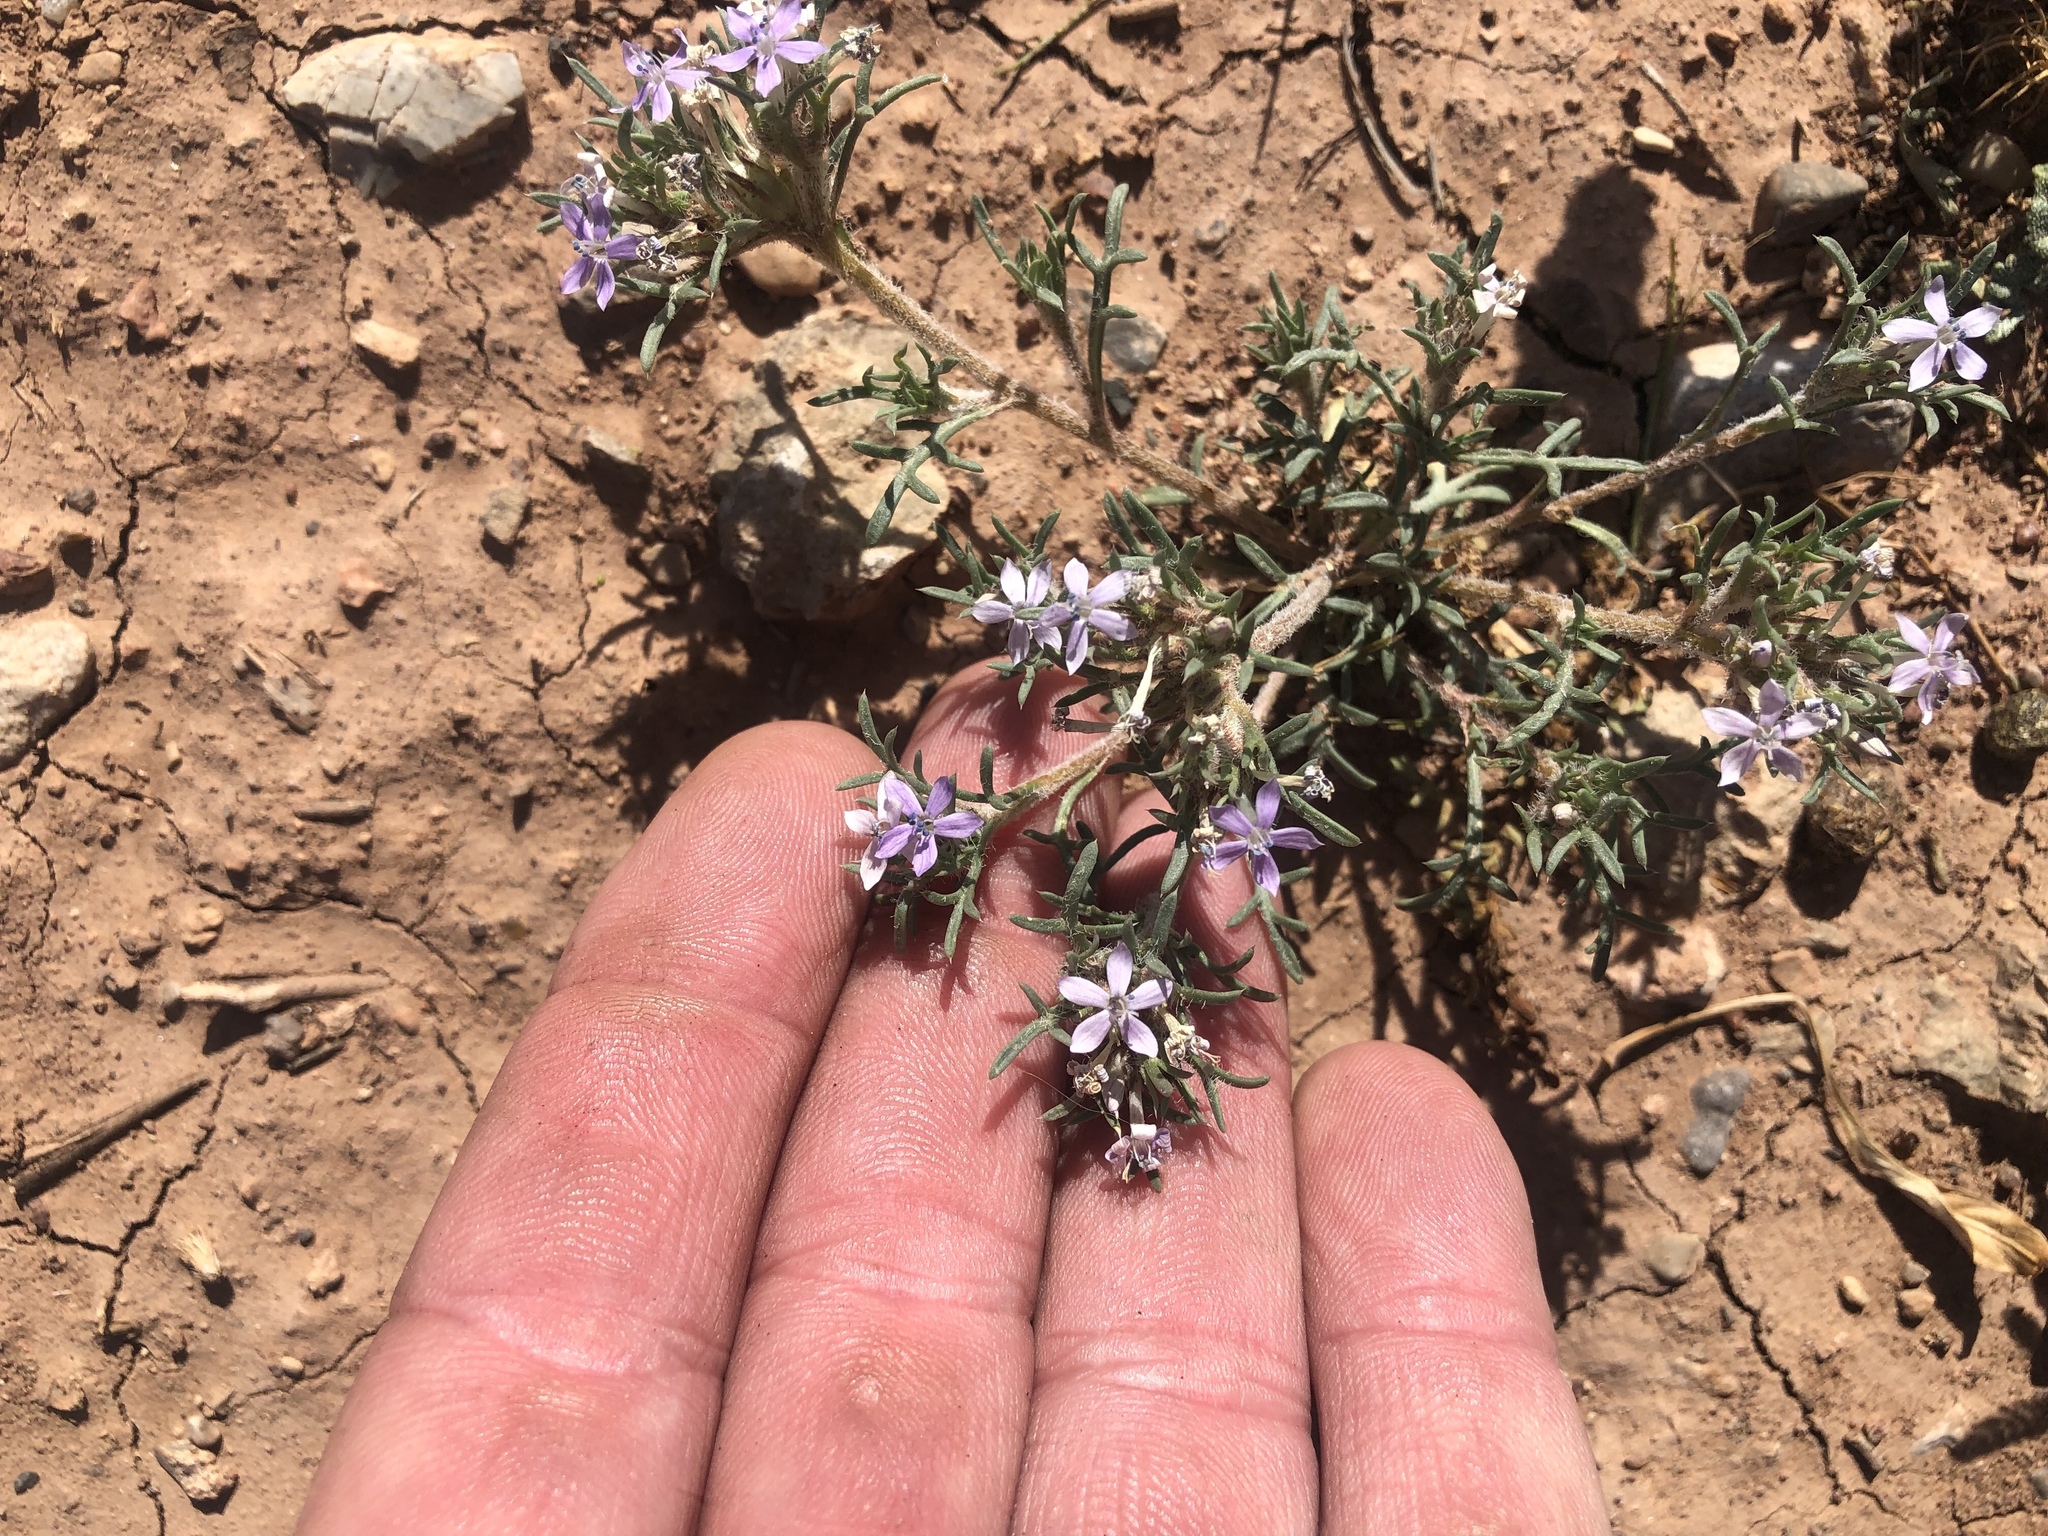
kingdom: Plantae
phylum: Tracheophyta
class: Magnoliopsida
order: Ericales
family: Polemoniaceae
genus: Ipomopsis
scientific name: Ipomopsis pumila
